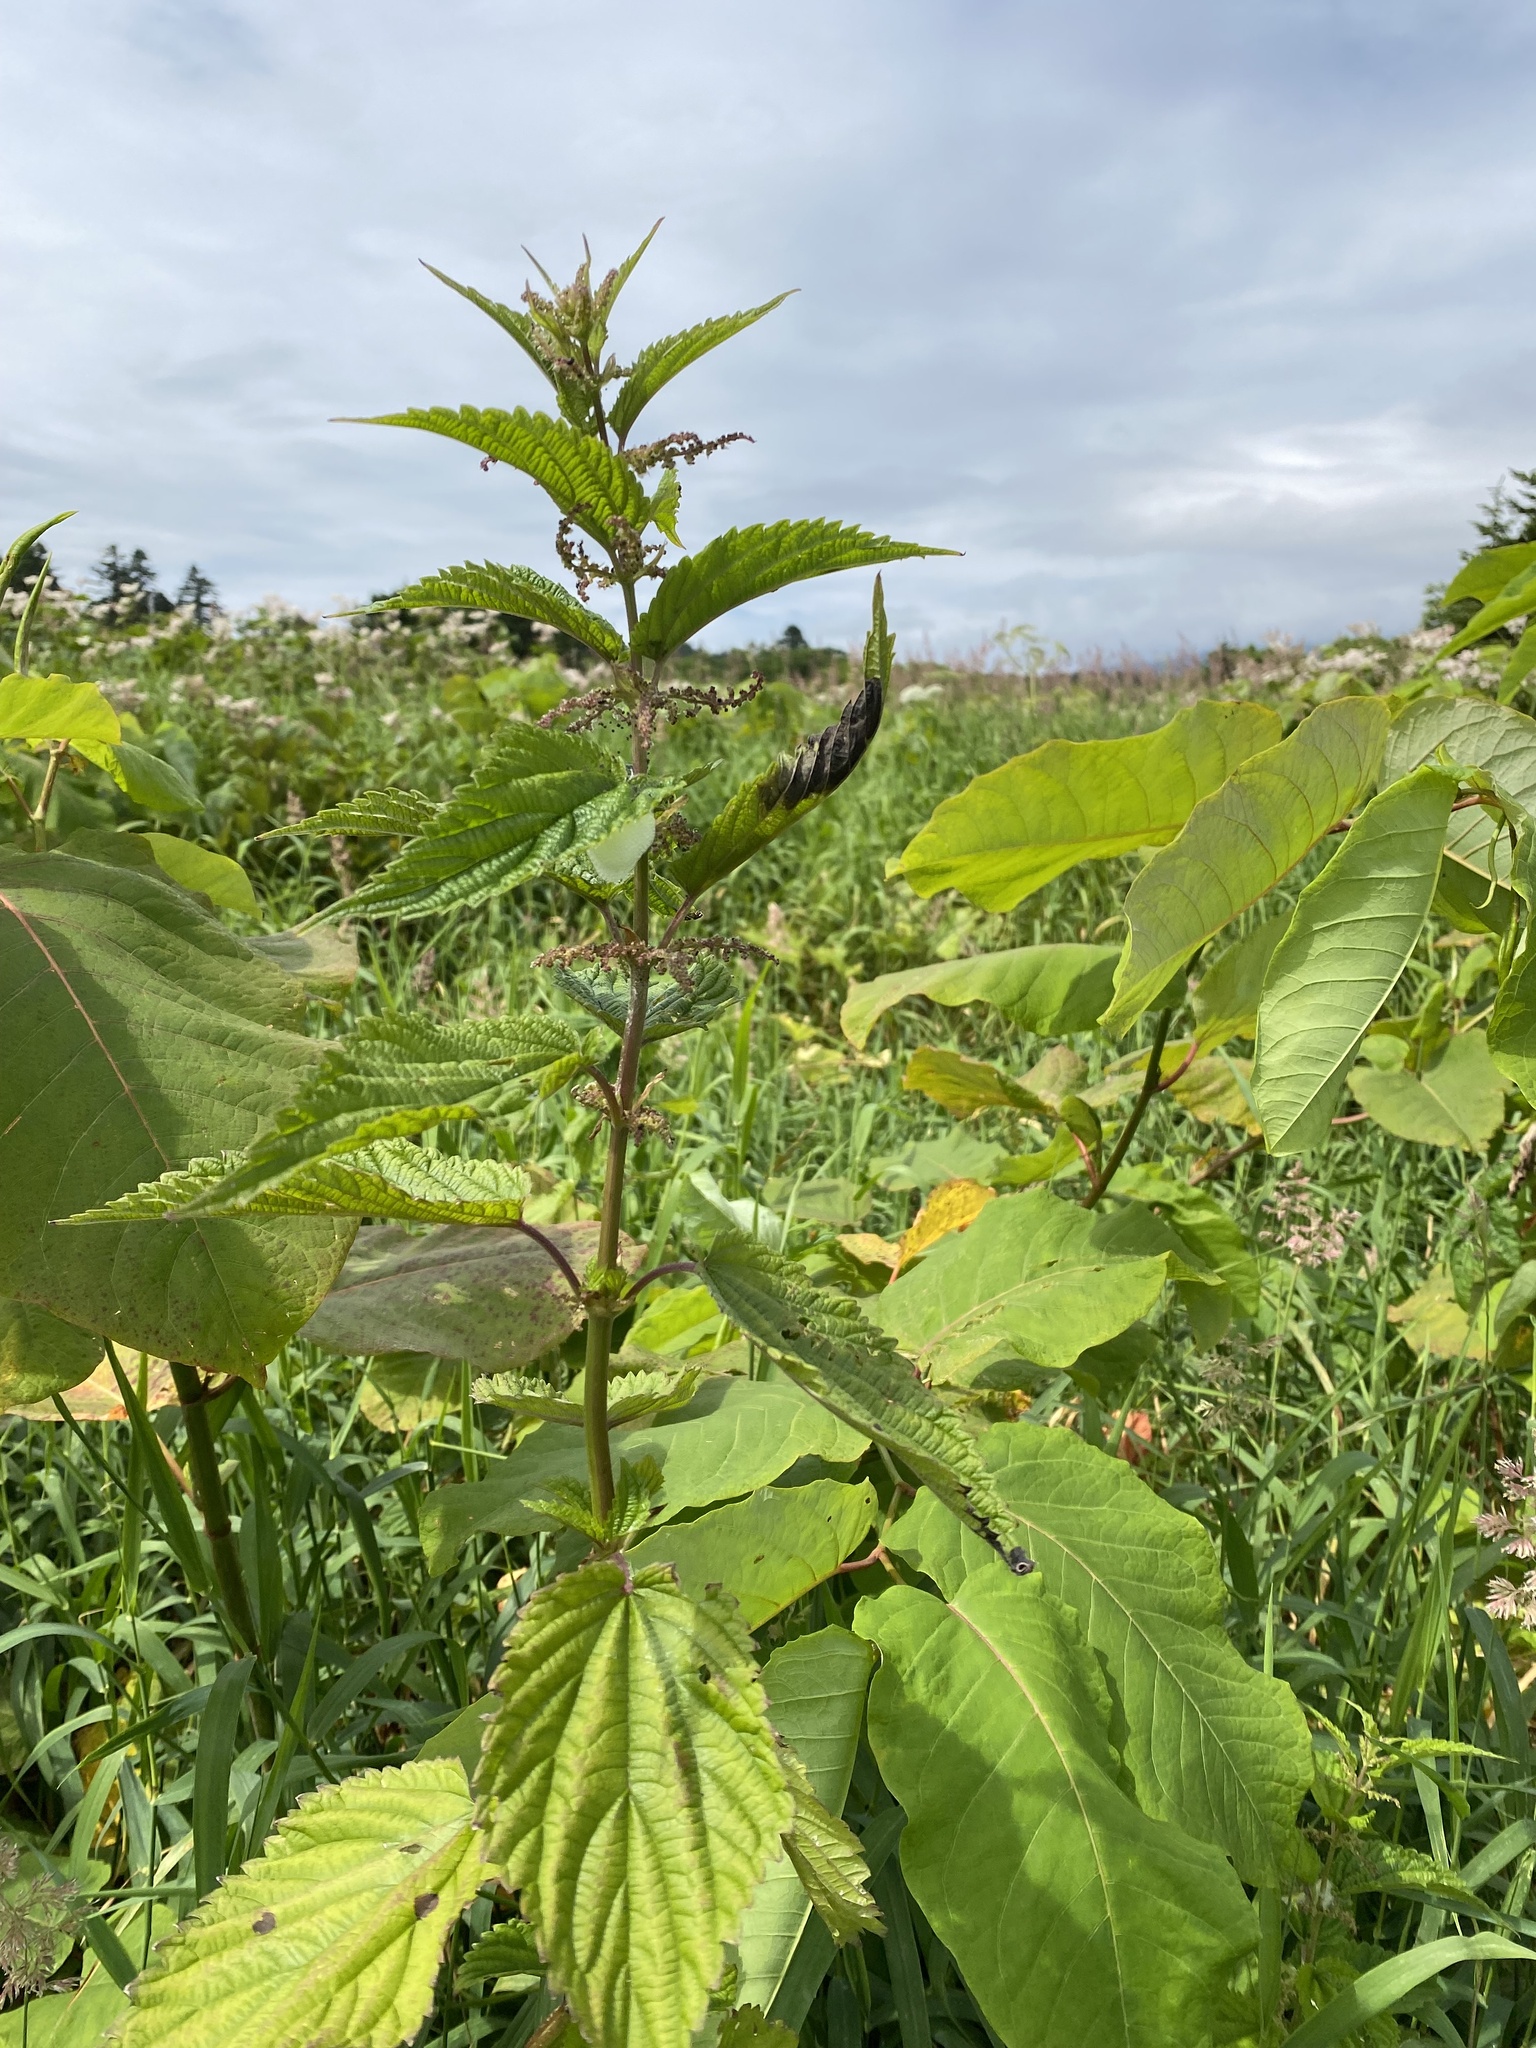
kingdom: Plantae
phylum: Tracheophyta
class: Magnoliopsida
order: Rosales
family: Urticaceae
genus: Urtica
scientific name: Urtica platyphylla
